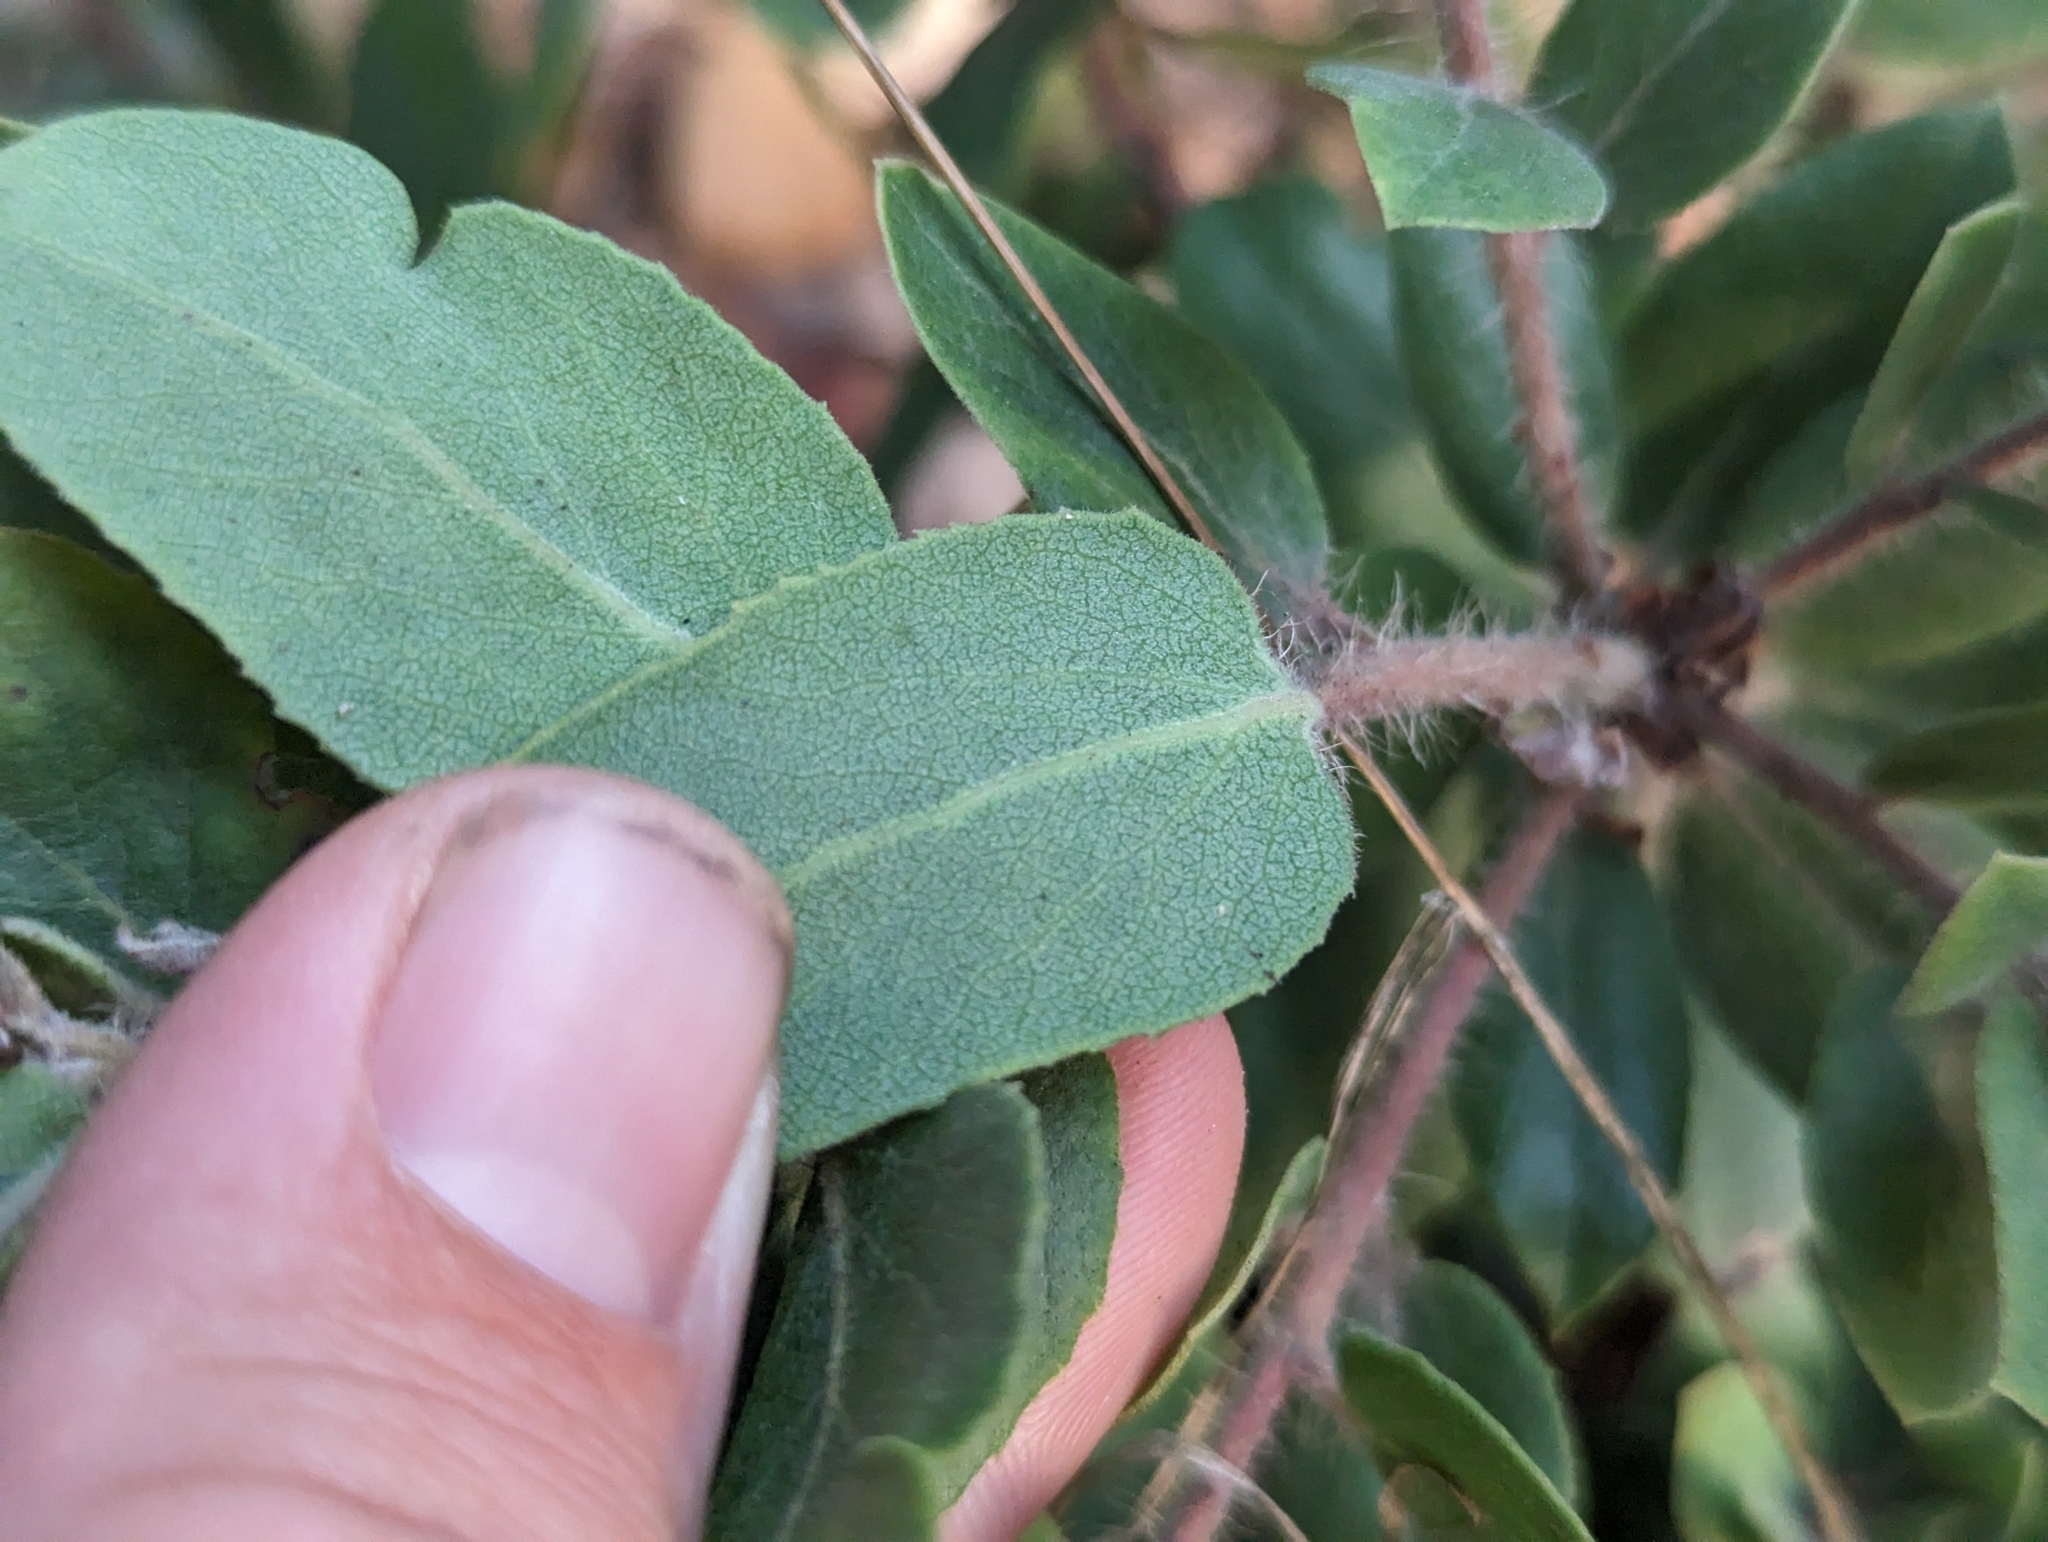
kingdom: Plantae
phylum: Tracheophyta
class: Magnoliopsida
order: Ericales
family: Ericaceae
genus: Arctostaphylos
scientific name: Arctostaphylos crustacea
